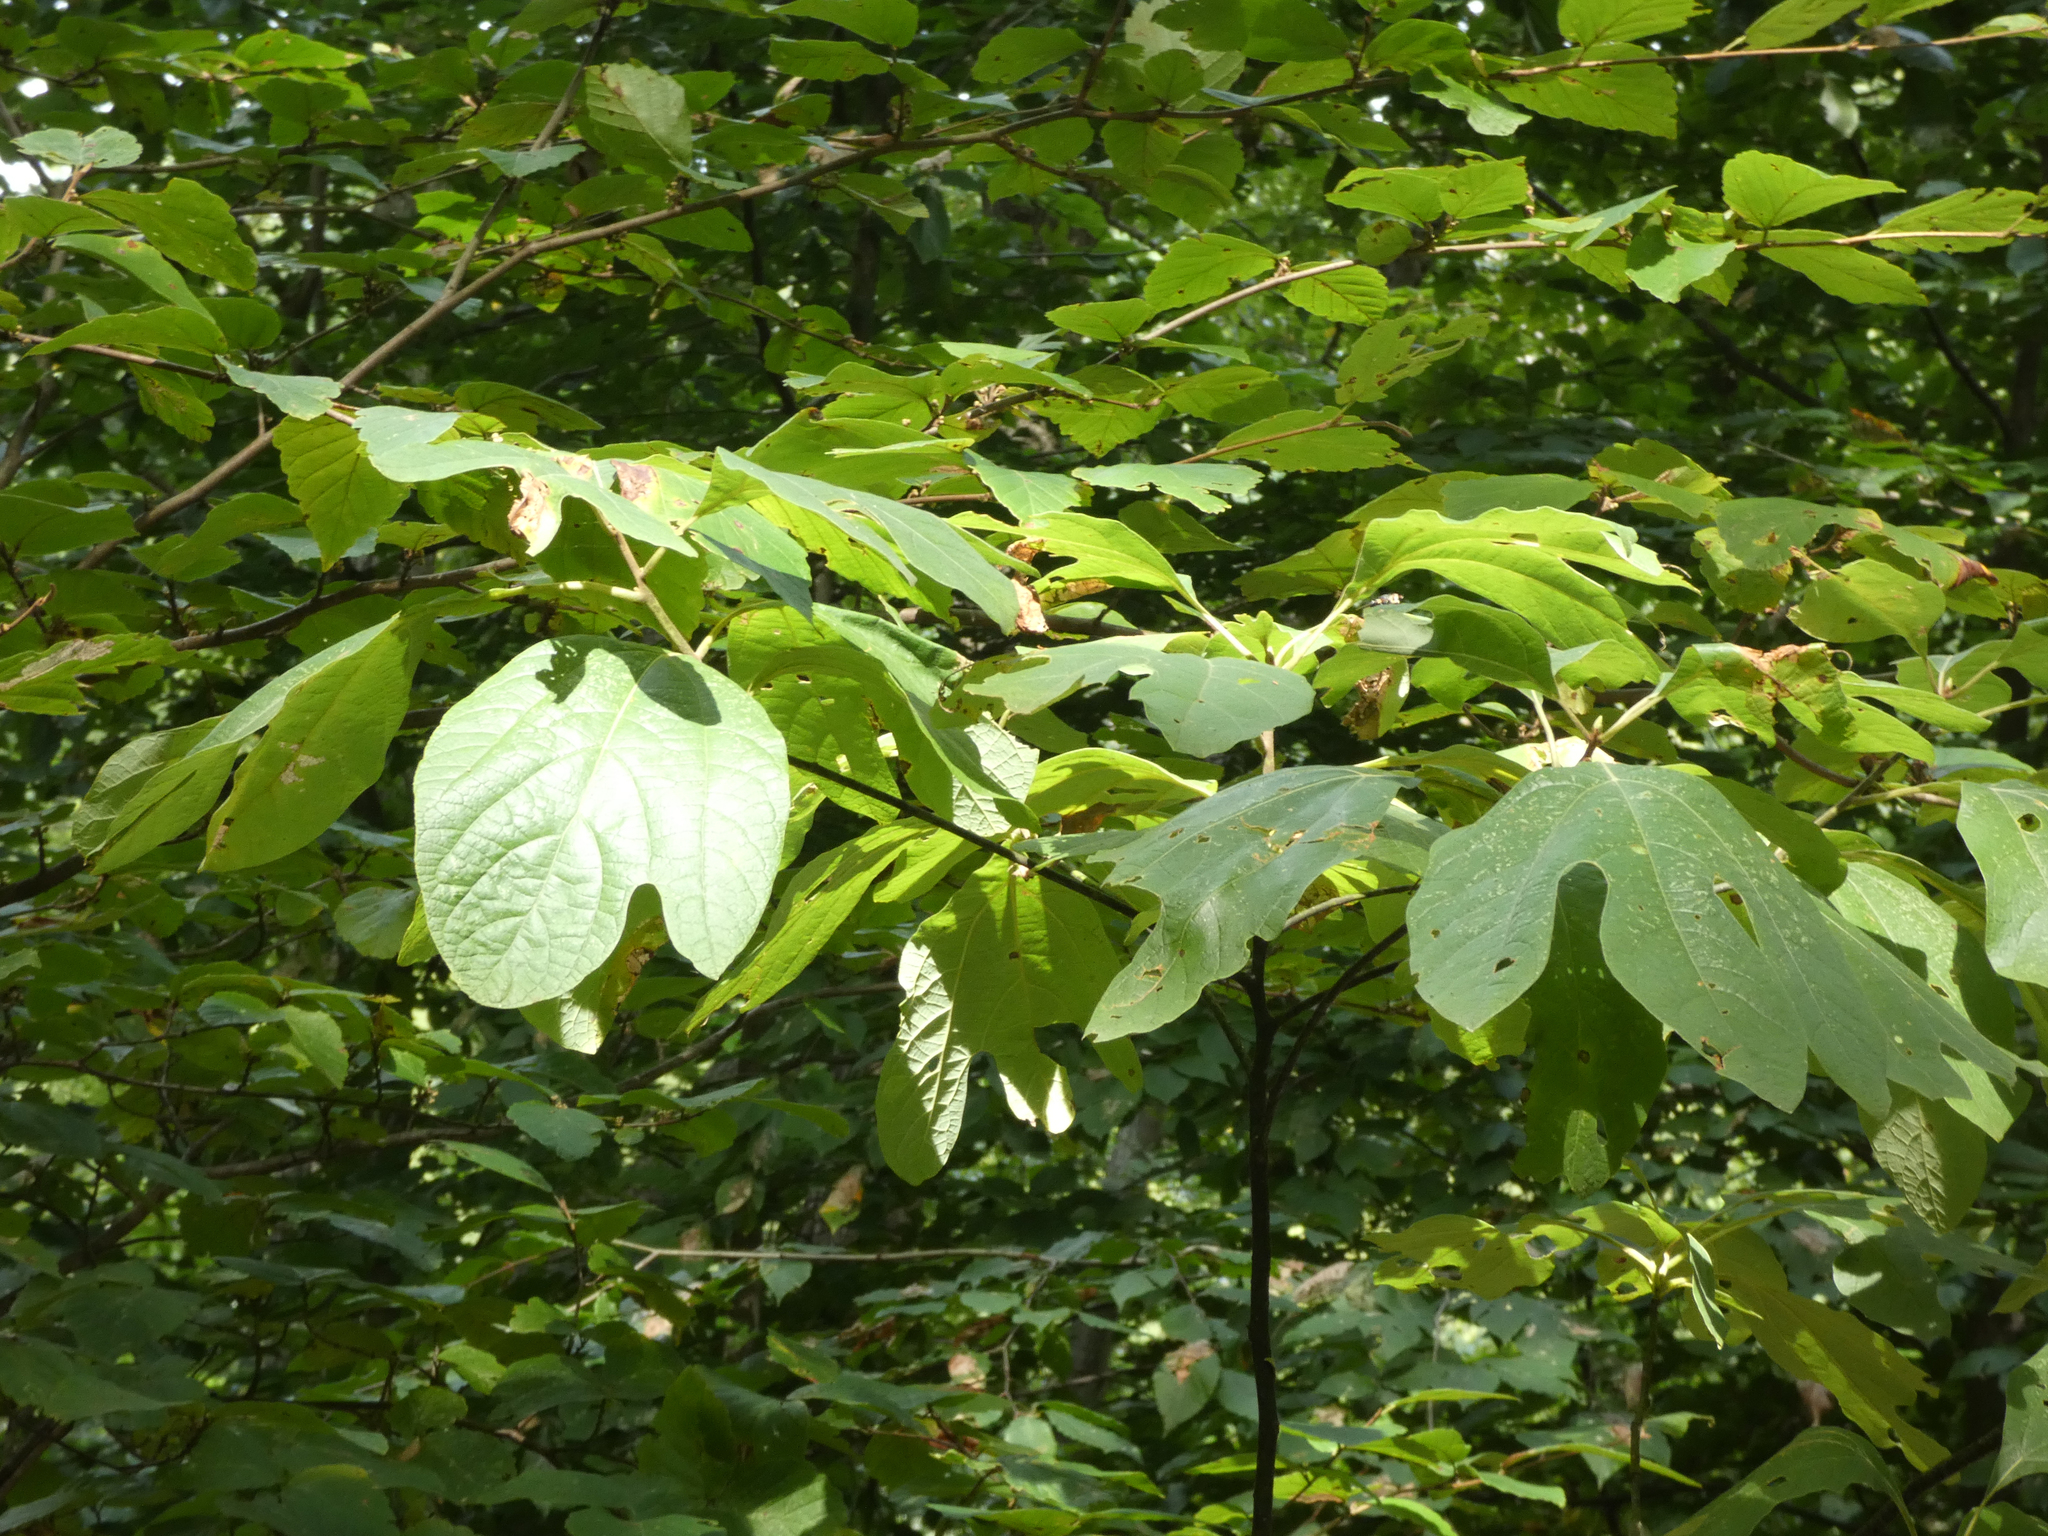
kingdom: Plantae
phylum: Tracheophyta
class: Magnoliopsida
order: Laurales
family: Lauraceae
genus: Sassafras
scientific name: Sassafras albidum
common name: Sassafras
